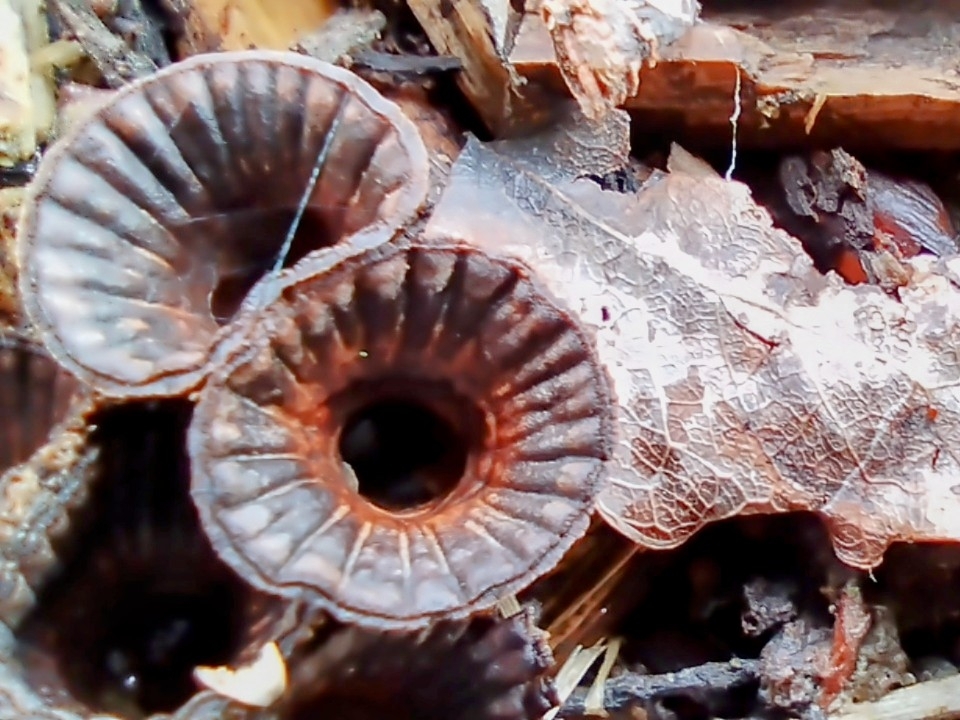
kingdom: Fungi
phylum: Basidiomycota
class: Agaricomycetes
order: Agaricales
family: Agaricaceae
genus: Cyathus
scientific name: Cyathus striatus
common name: Fluted bird's nest
